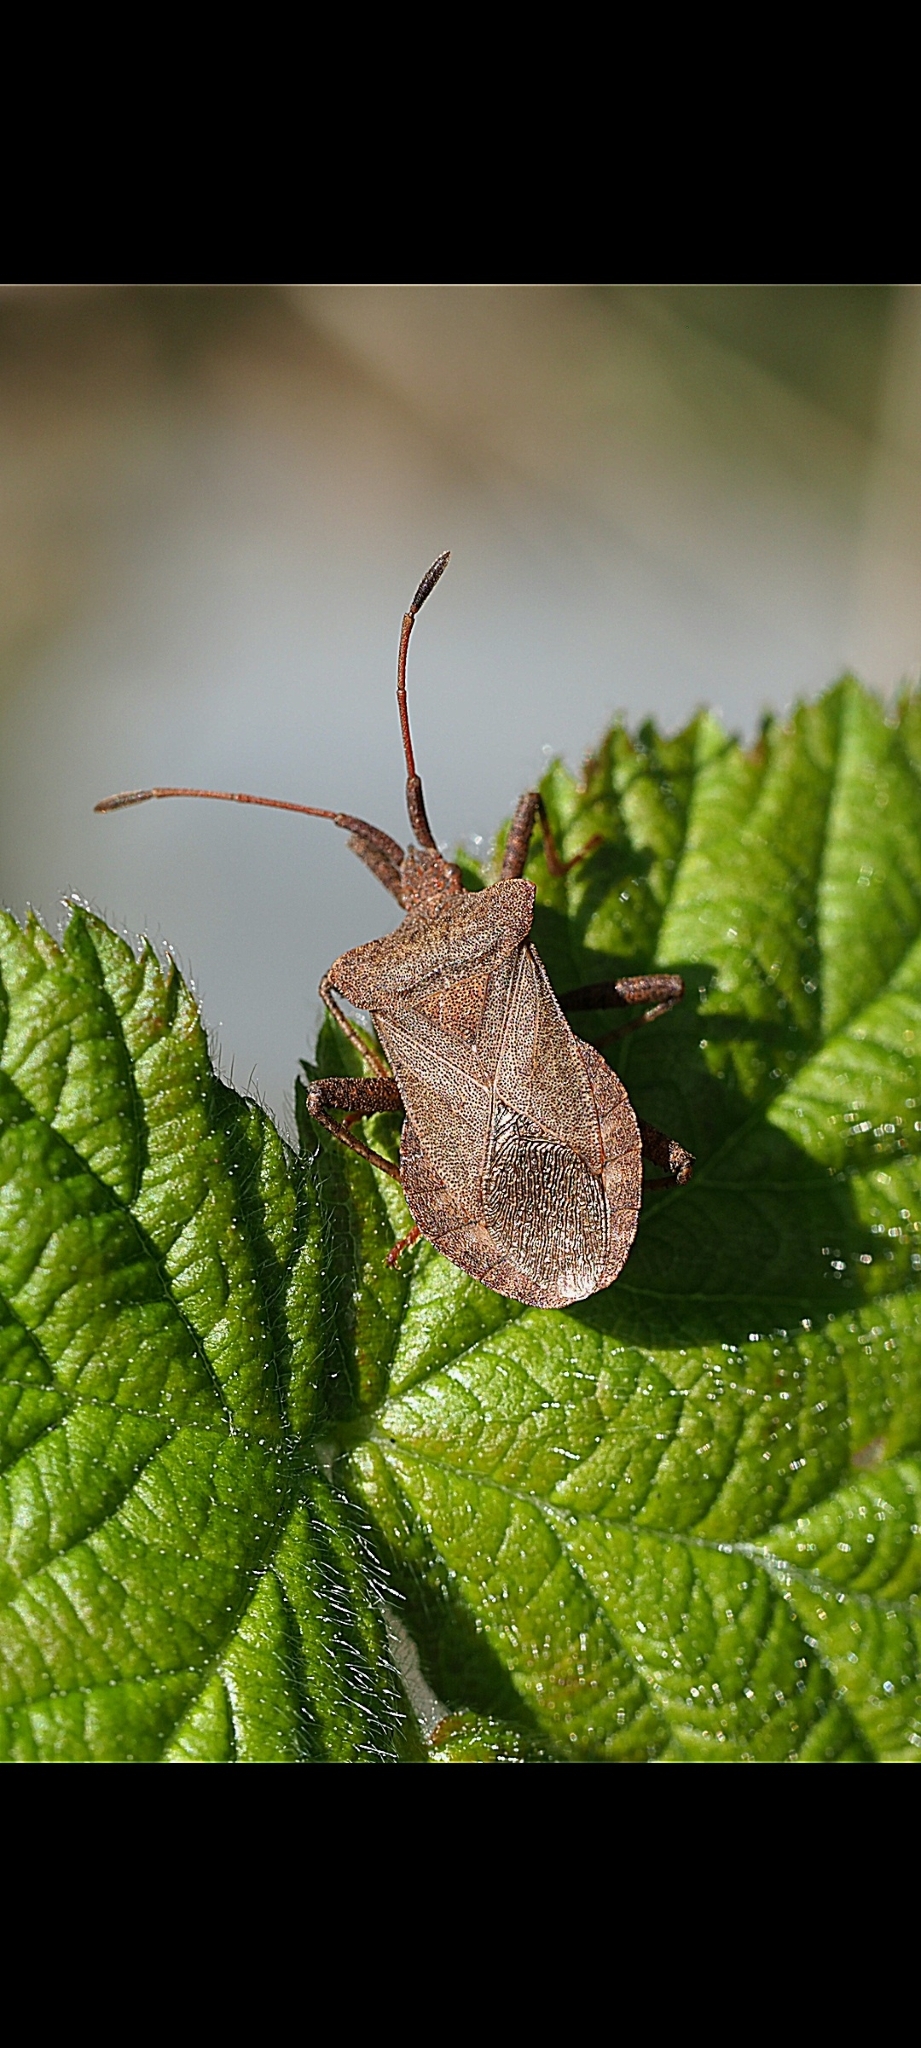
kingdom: Animalia
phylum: Arthropoda
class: Insecta
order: Hemiptera
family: Coreidae
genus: Coreus
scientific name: Coreus marginatus
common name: Dock bug
